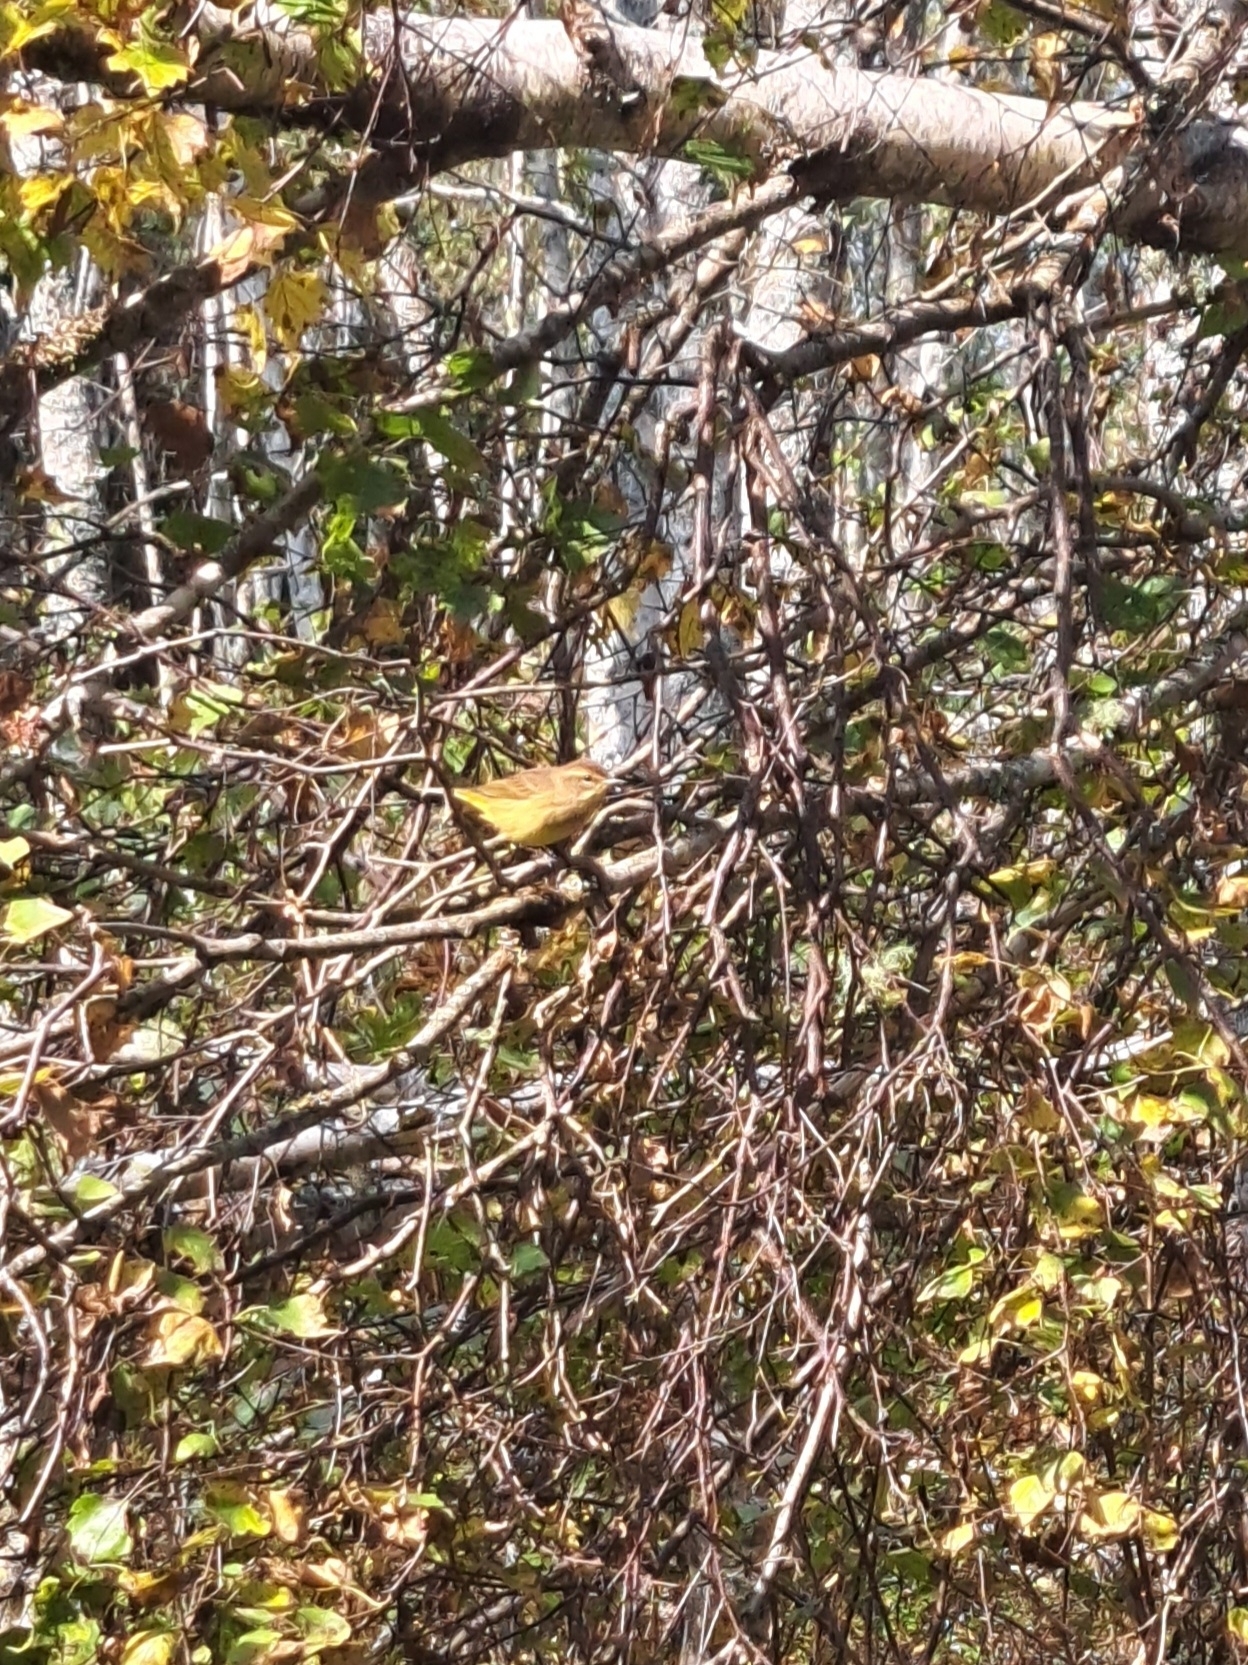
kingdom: Animalia
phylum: Chordata
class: Aves
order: Passeriformes
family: Parulidae
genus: Setophaga
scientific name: Setophaga palmarum
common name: Palm warbler
